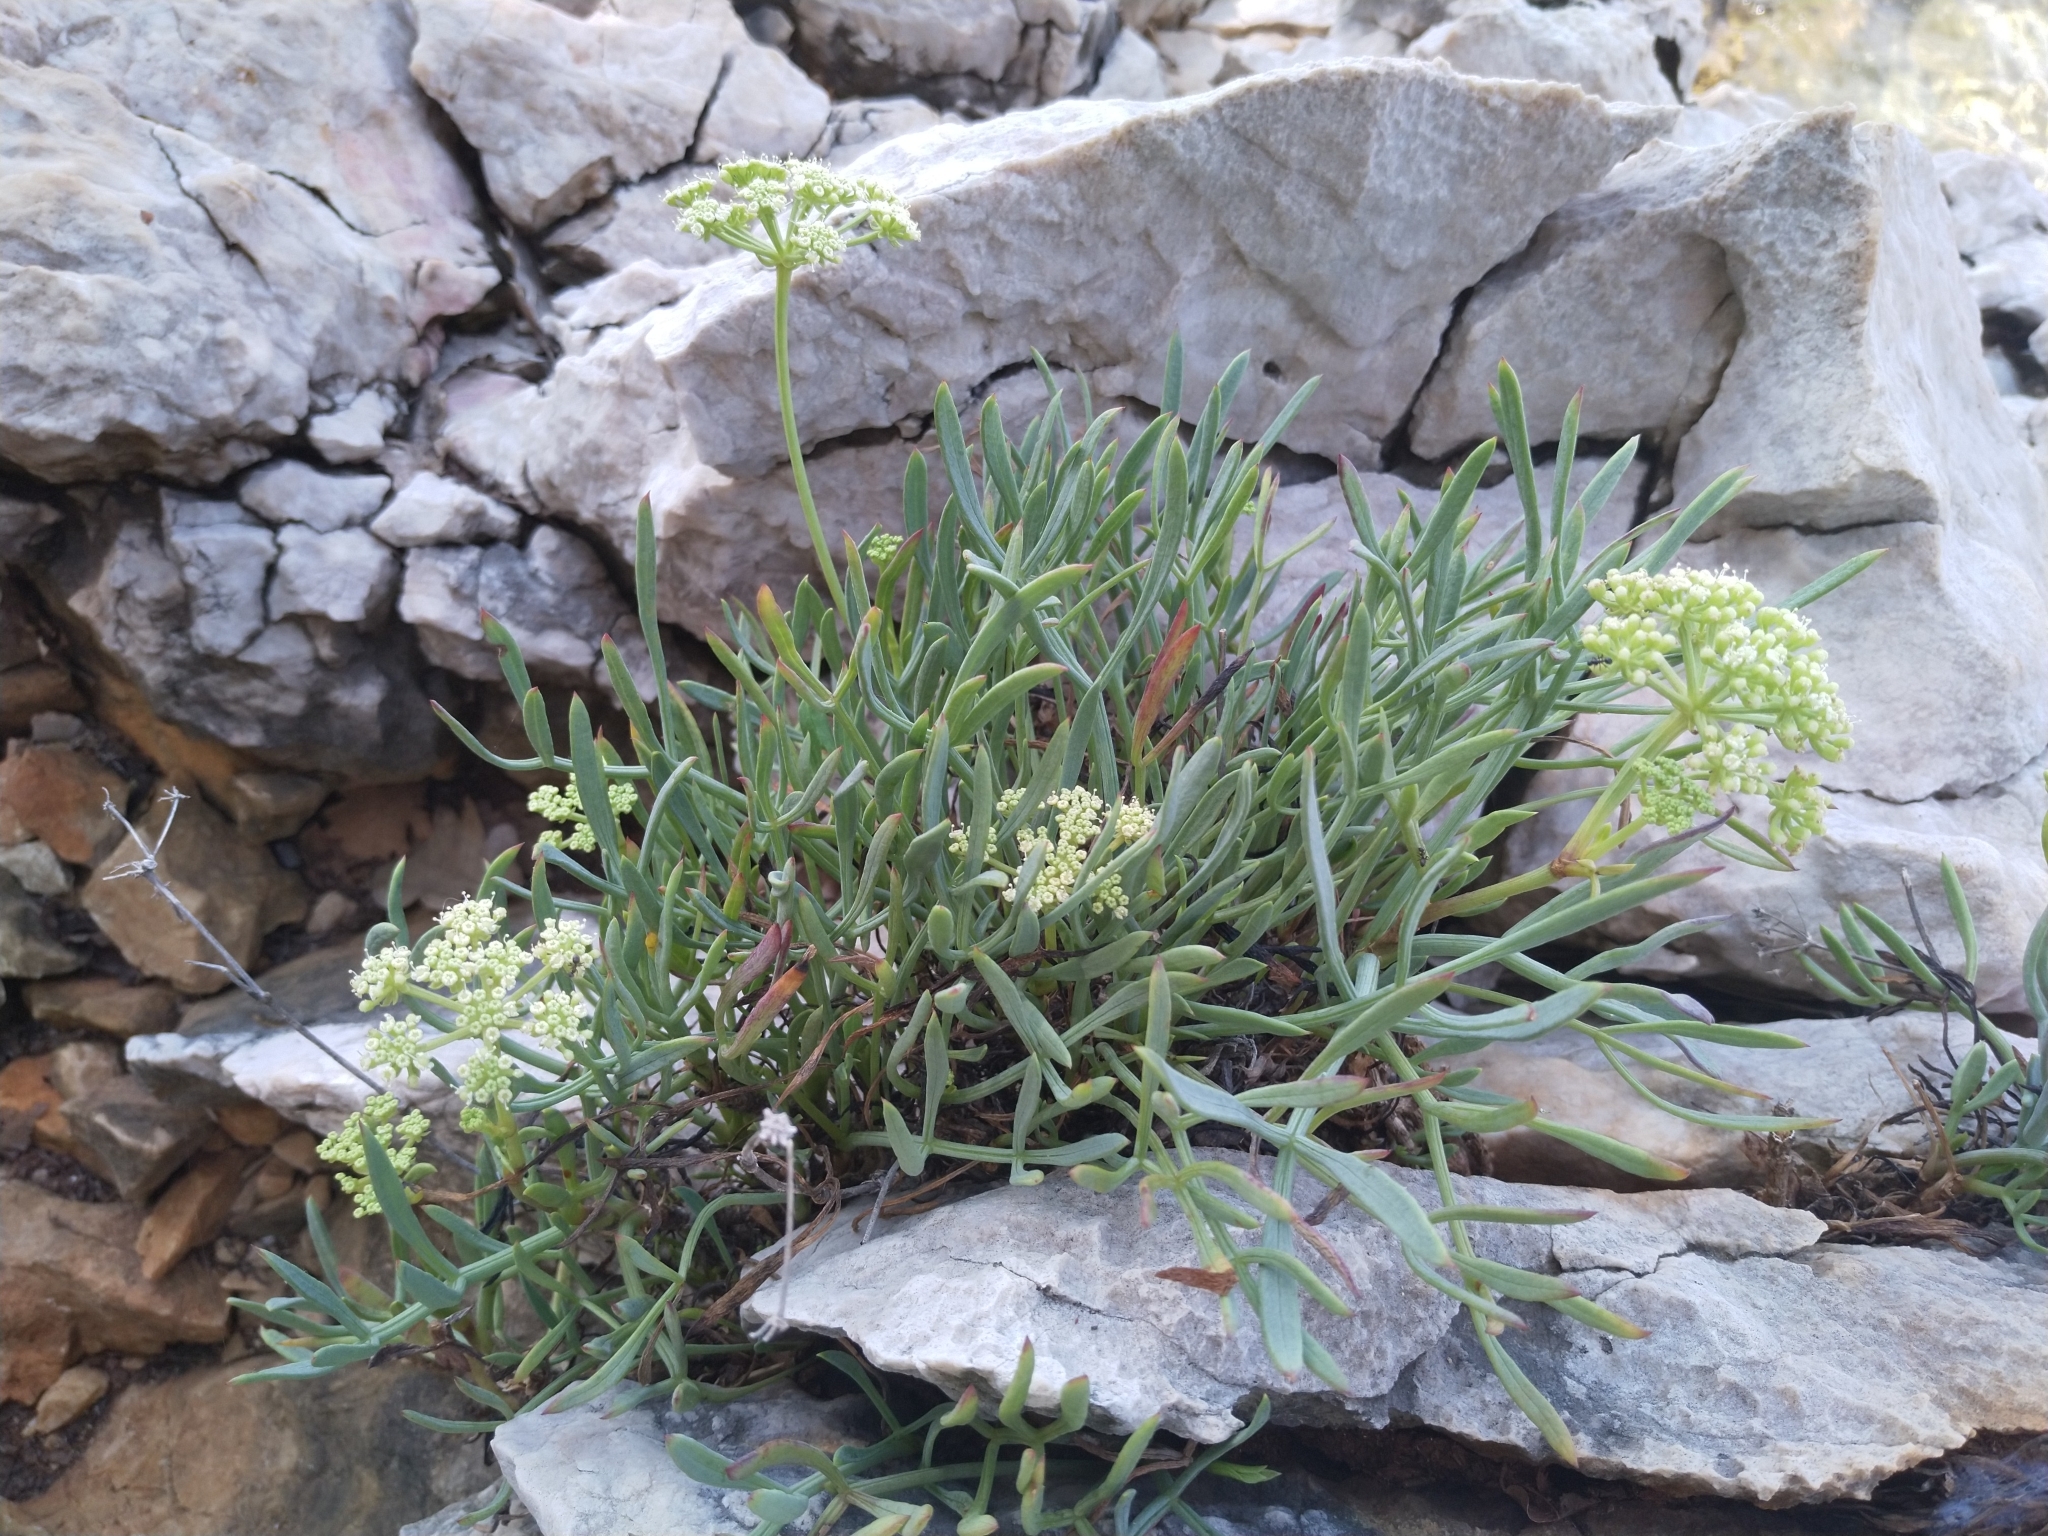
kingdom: Plantae
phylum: Tracheophyta
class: Magnoliopsida
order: Apiales
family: Apiaceae
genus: Crithmum
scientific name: Crithmum maritimum
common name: Rock samphire
